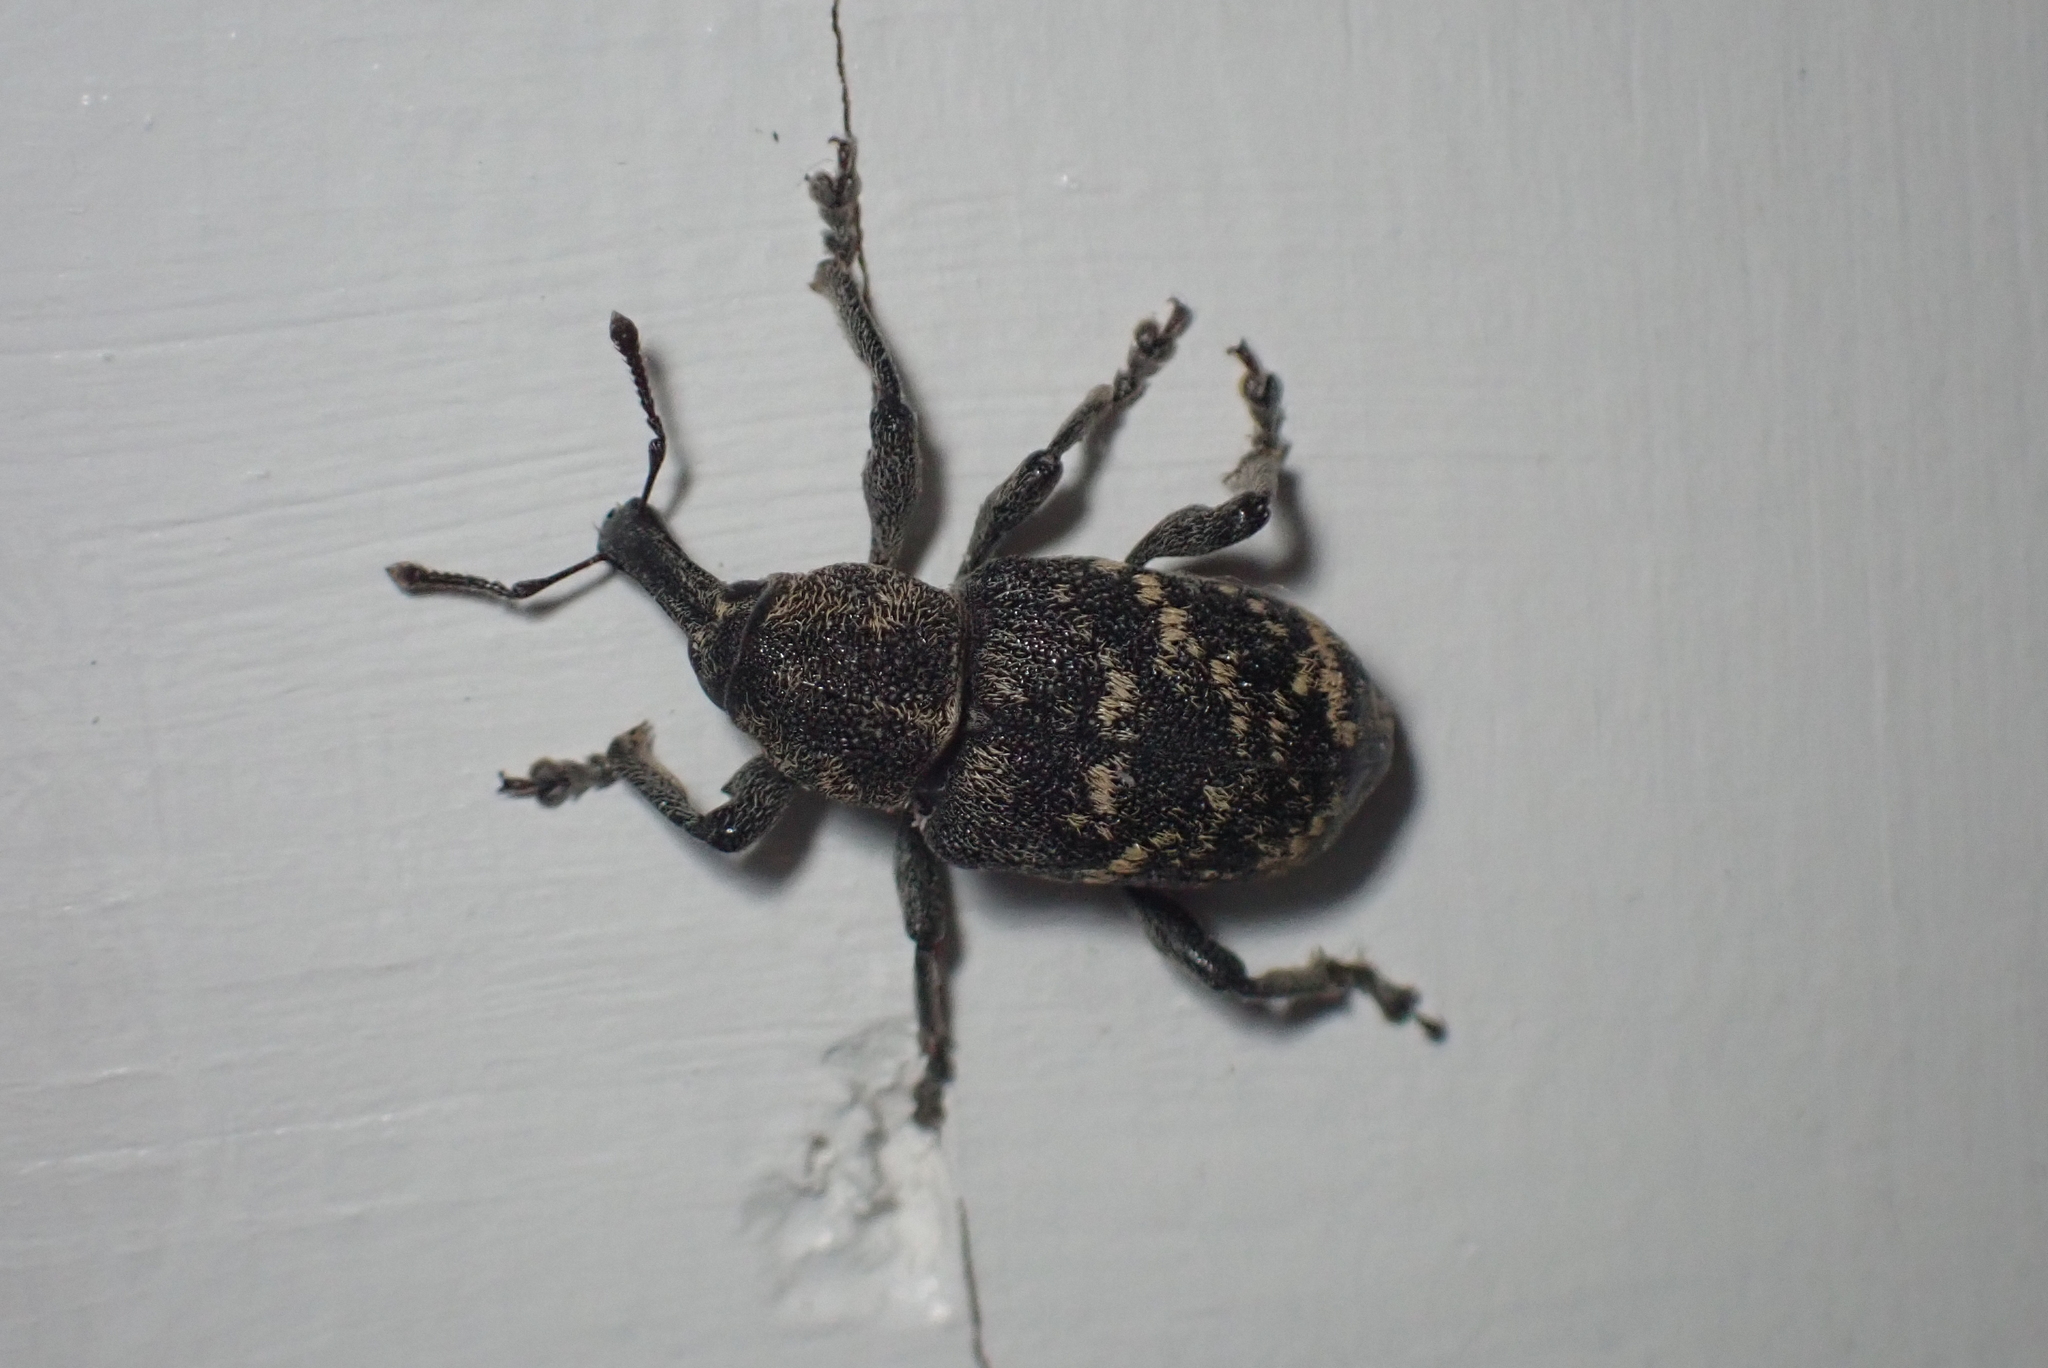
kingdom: Animalia
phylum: Arthropoda
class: Insecta
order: Coleoptera
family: Curculionidae
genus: Hylobius
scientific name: Hylobius abietis
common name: Large pine weevil
